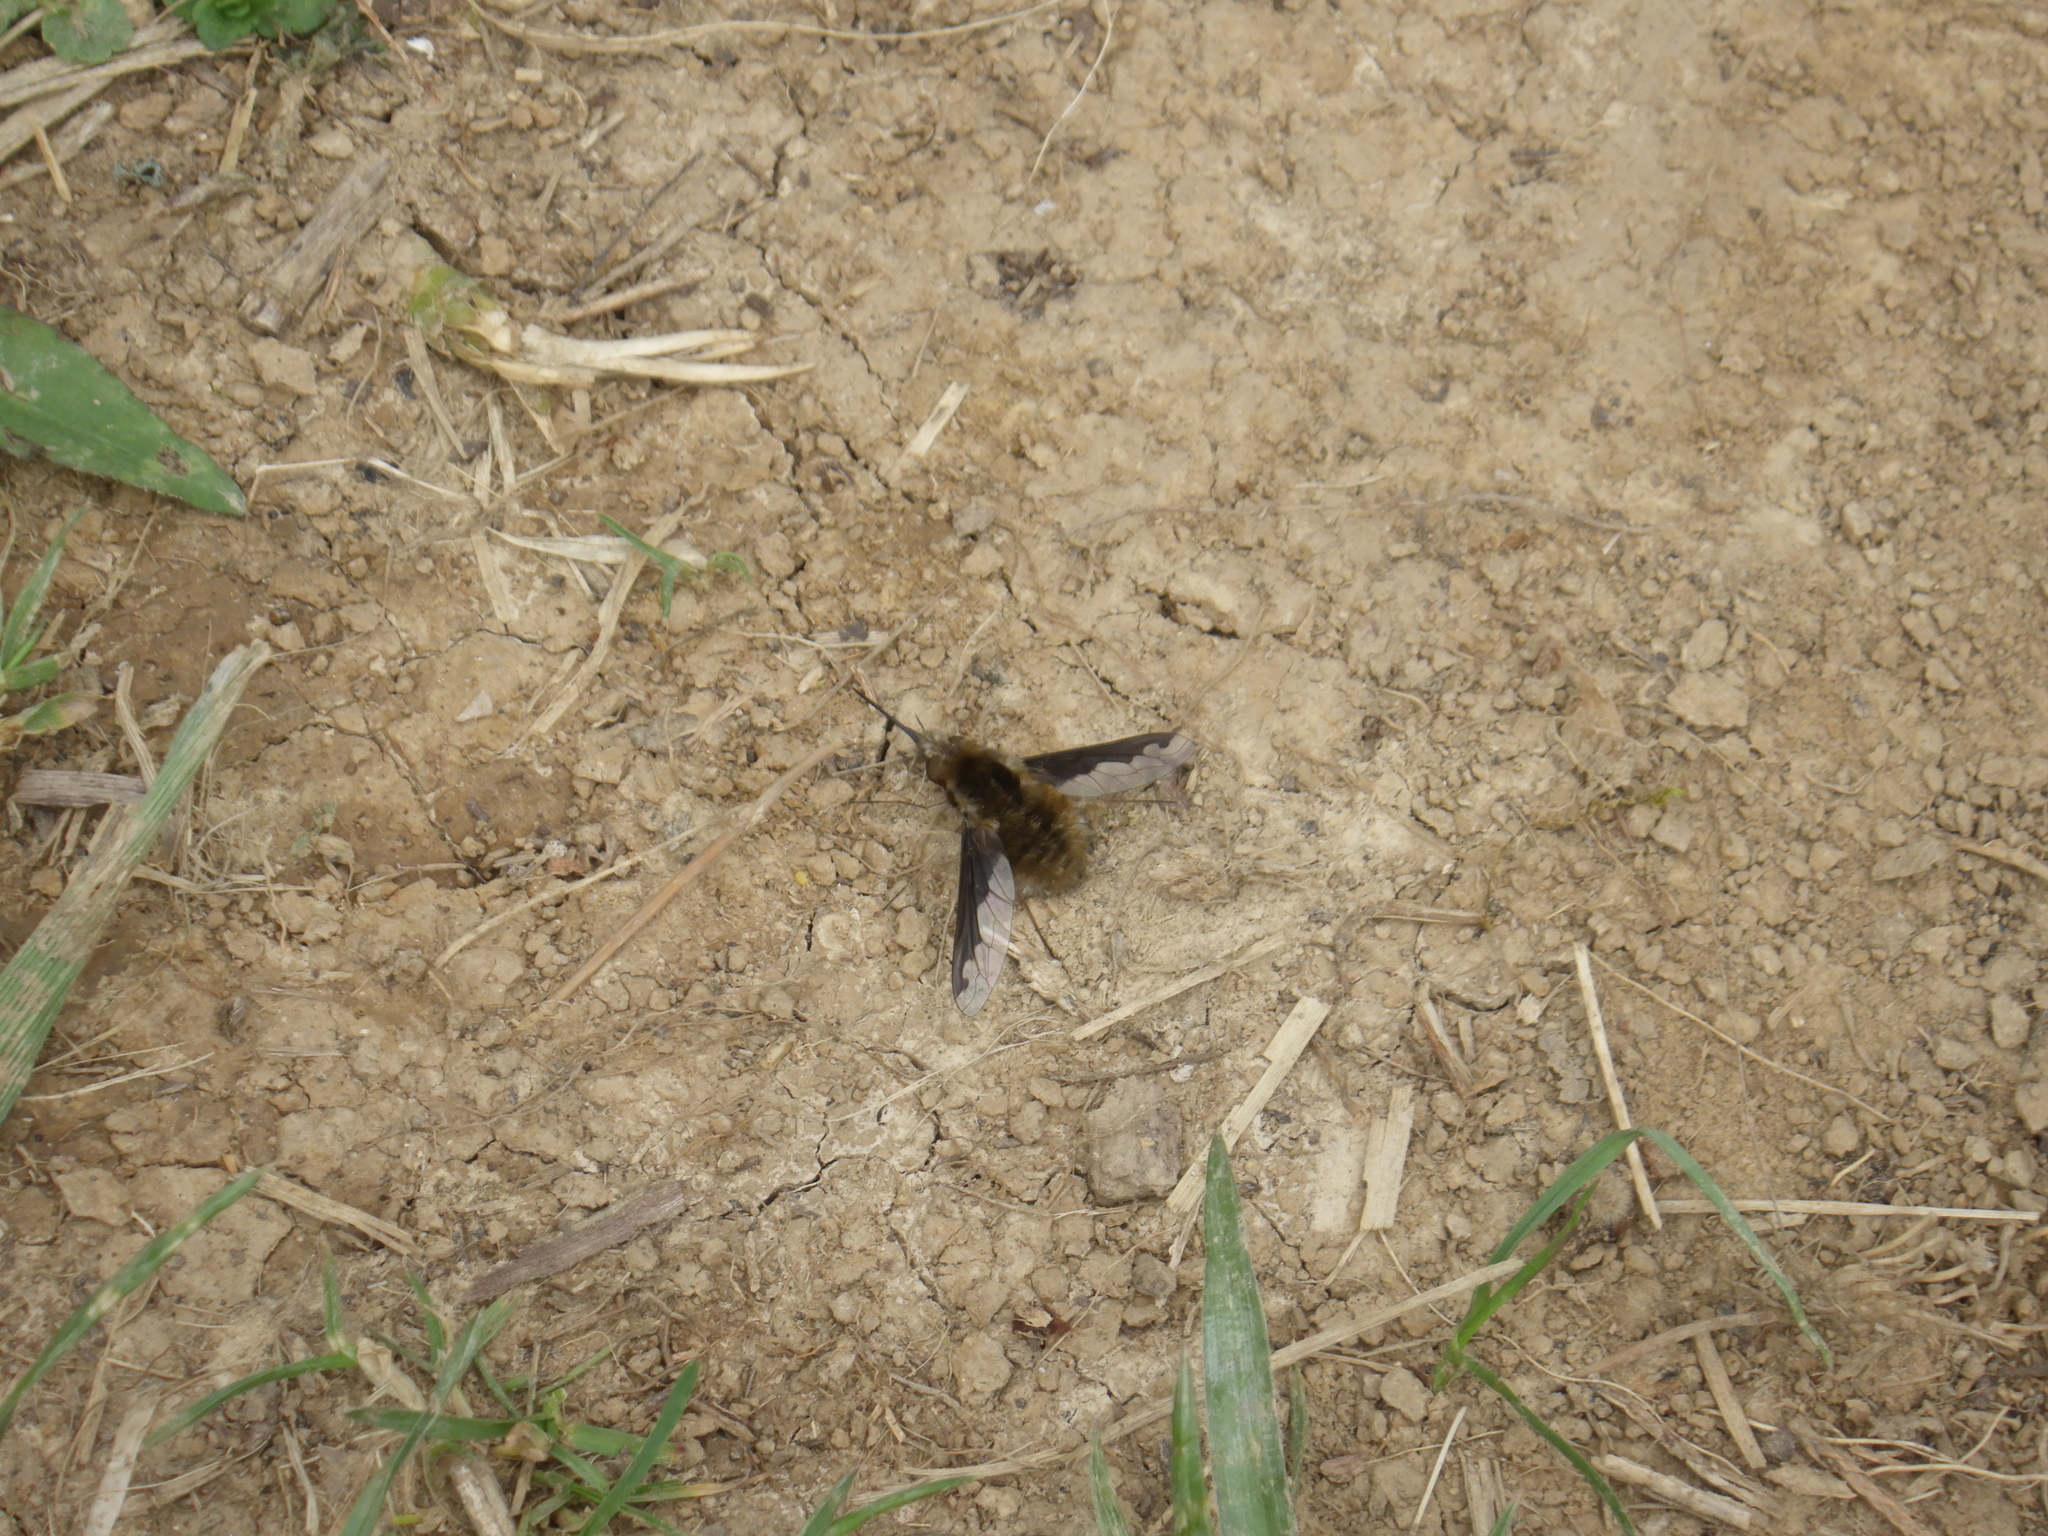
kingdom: Animalia
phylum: Arthropoda
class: Insecta
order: Diptera
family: Bombyliidae
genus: Bombylius
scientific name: Bombylius major
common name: Bee fly
